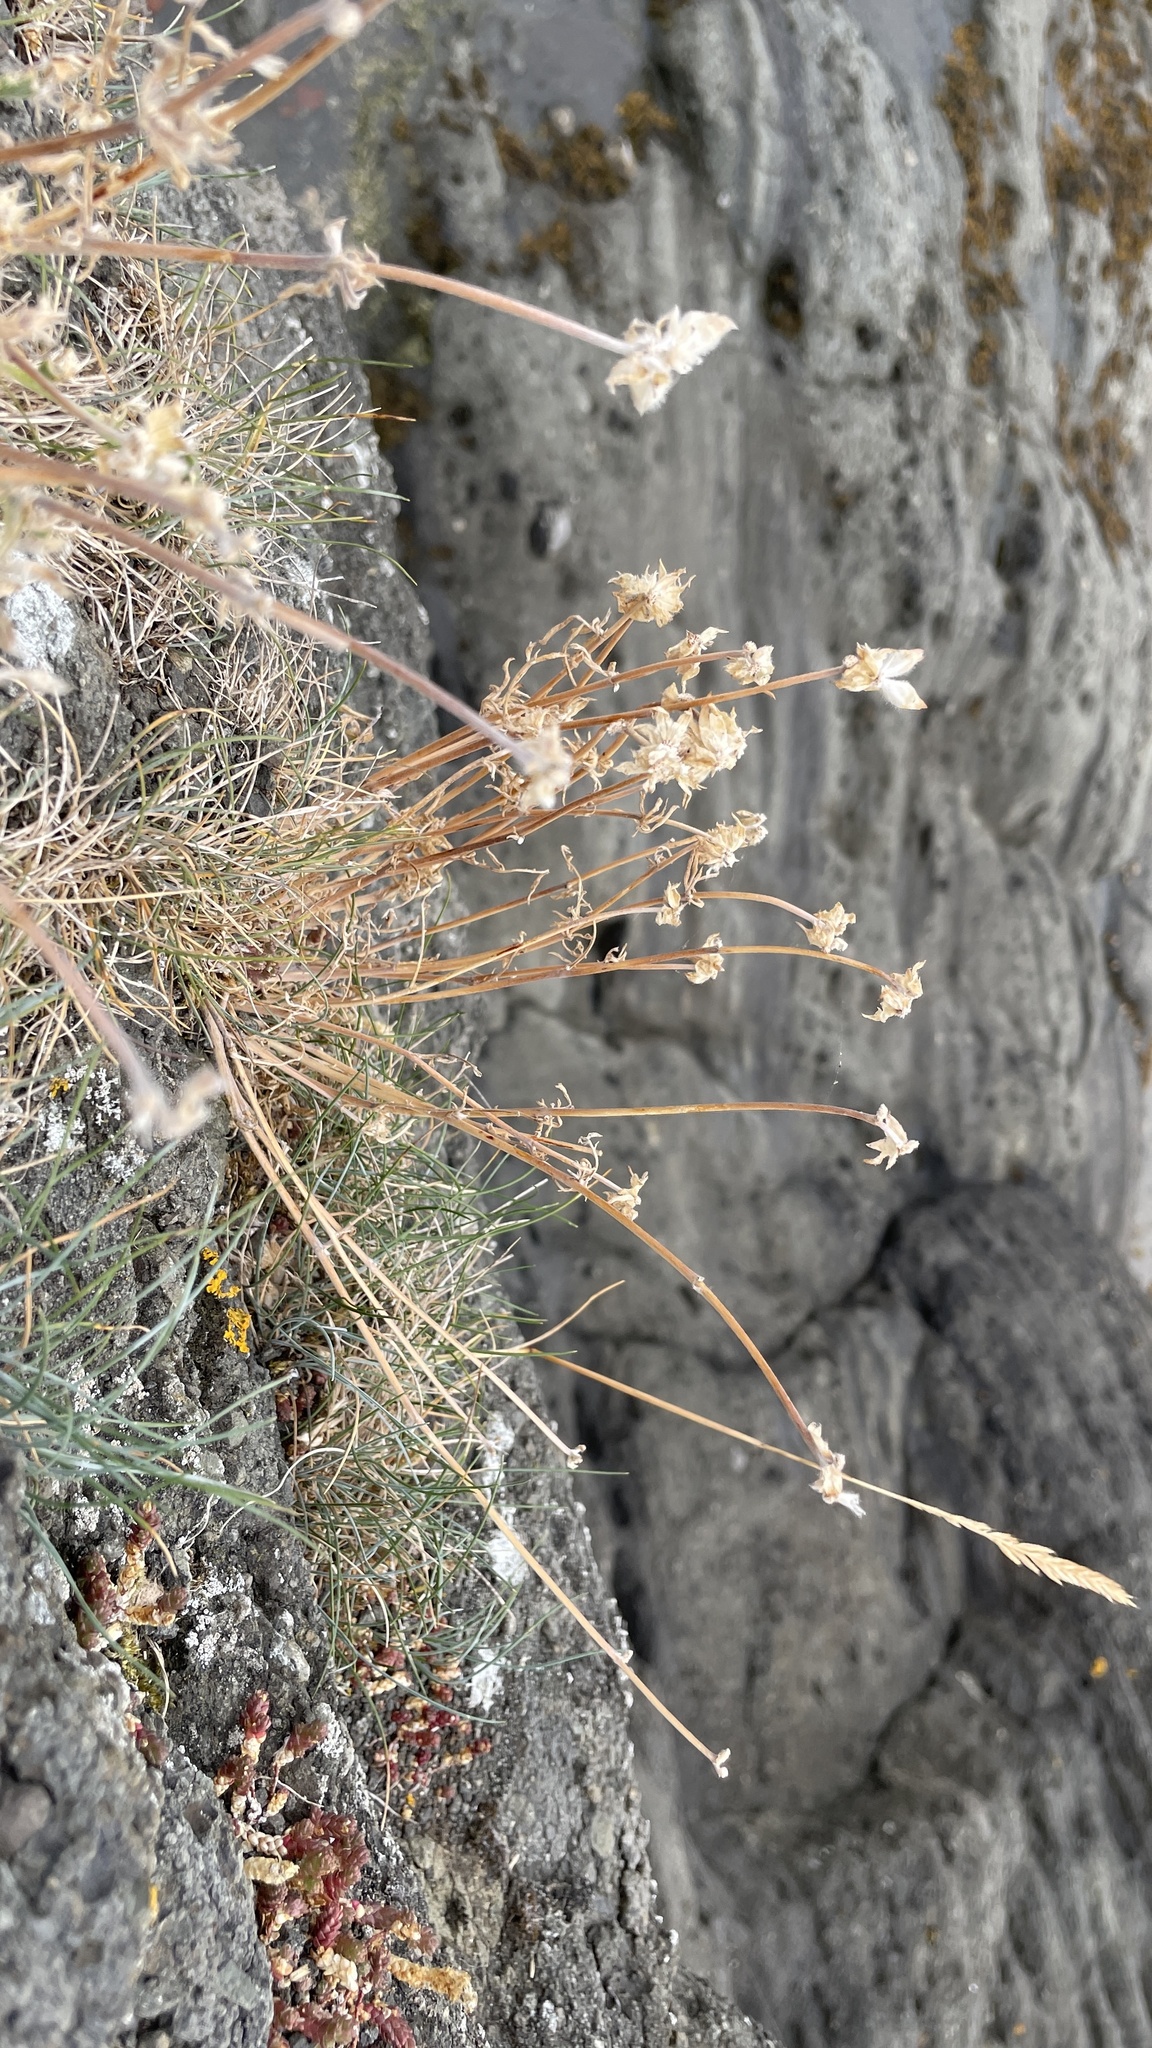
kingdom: Plantae
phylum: Tracheophyta
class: Magnoliopsida
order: Caryophyllales
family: Plumbaginaceae
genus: Armeria
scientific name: Armeria maritima
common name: Thrift
